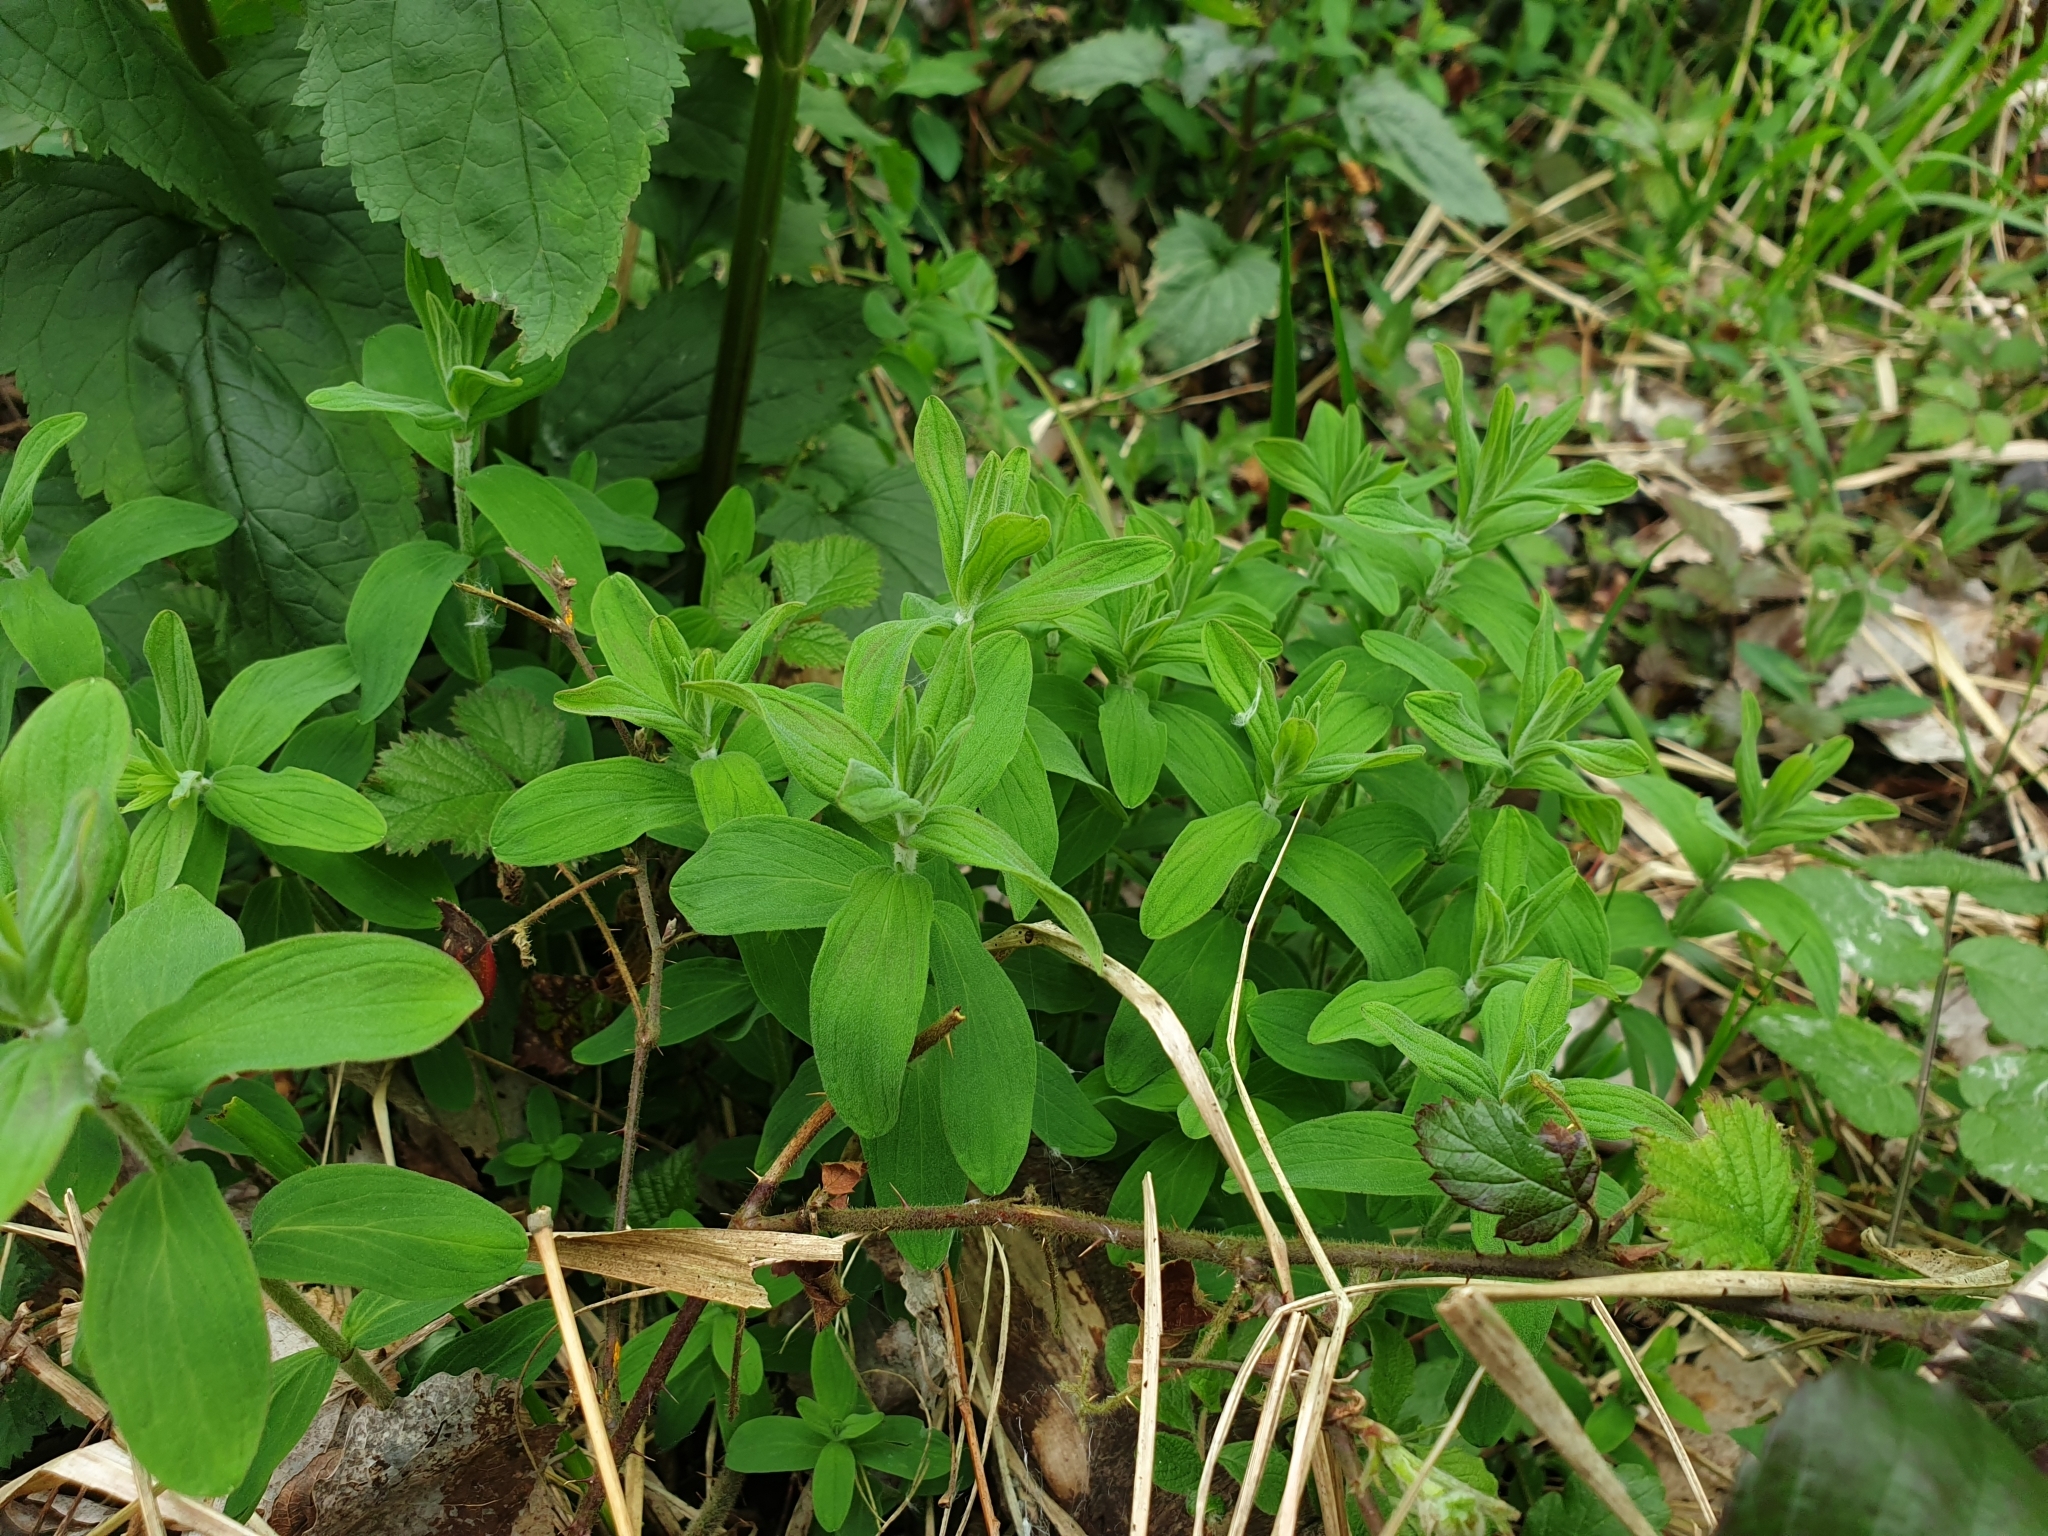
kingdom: Plantae
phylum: Tracheophyta
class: Magnoliopsida
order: Malpighiales
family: Hypericaceae
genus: Hypericum
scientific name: Hypericum hirsutum
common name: Hairy st. john's-wort
